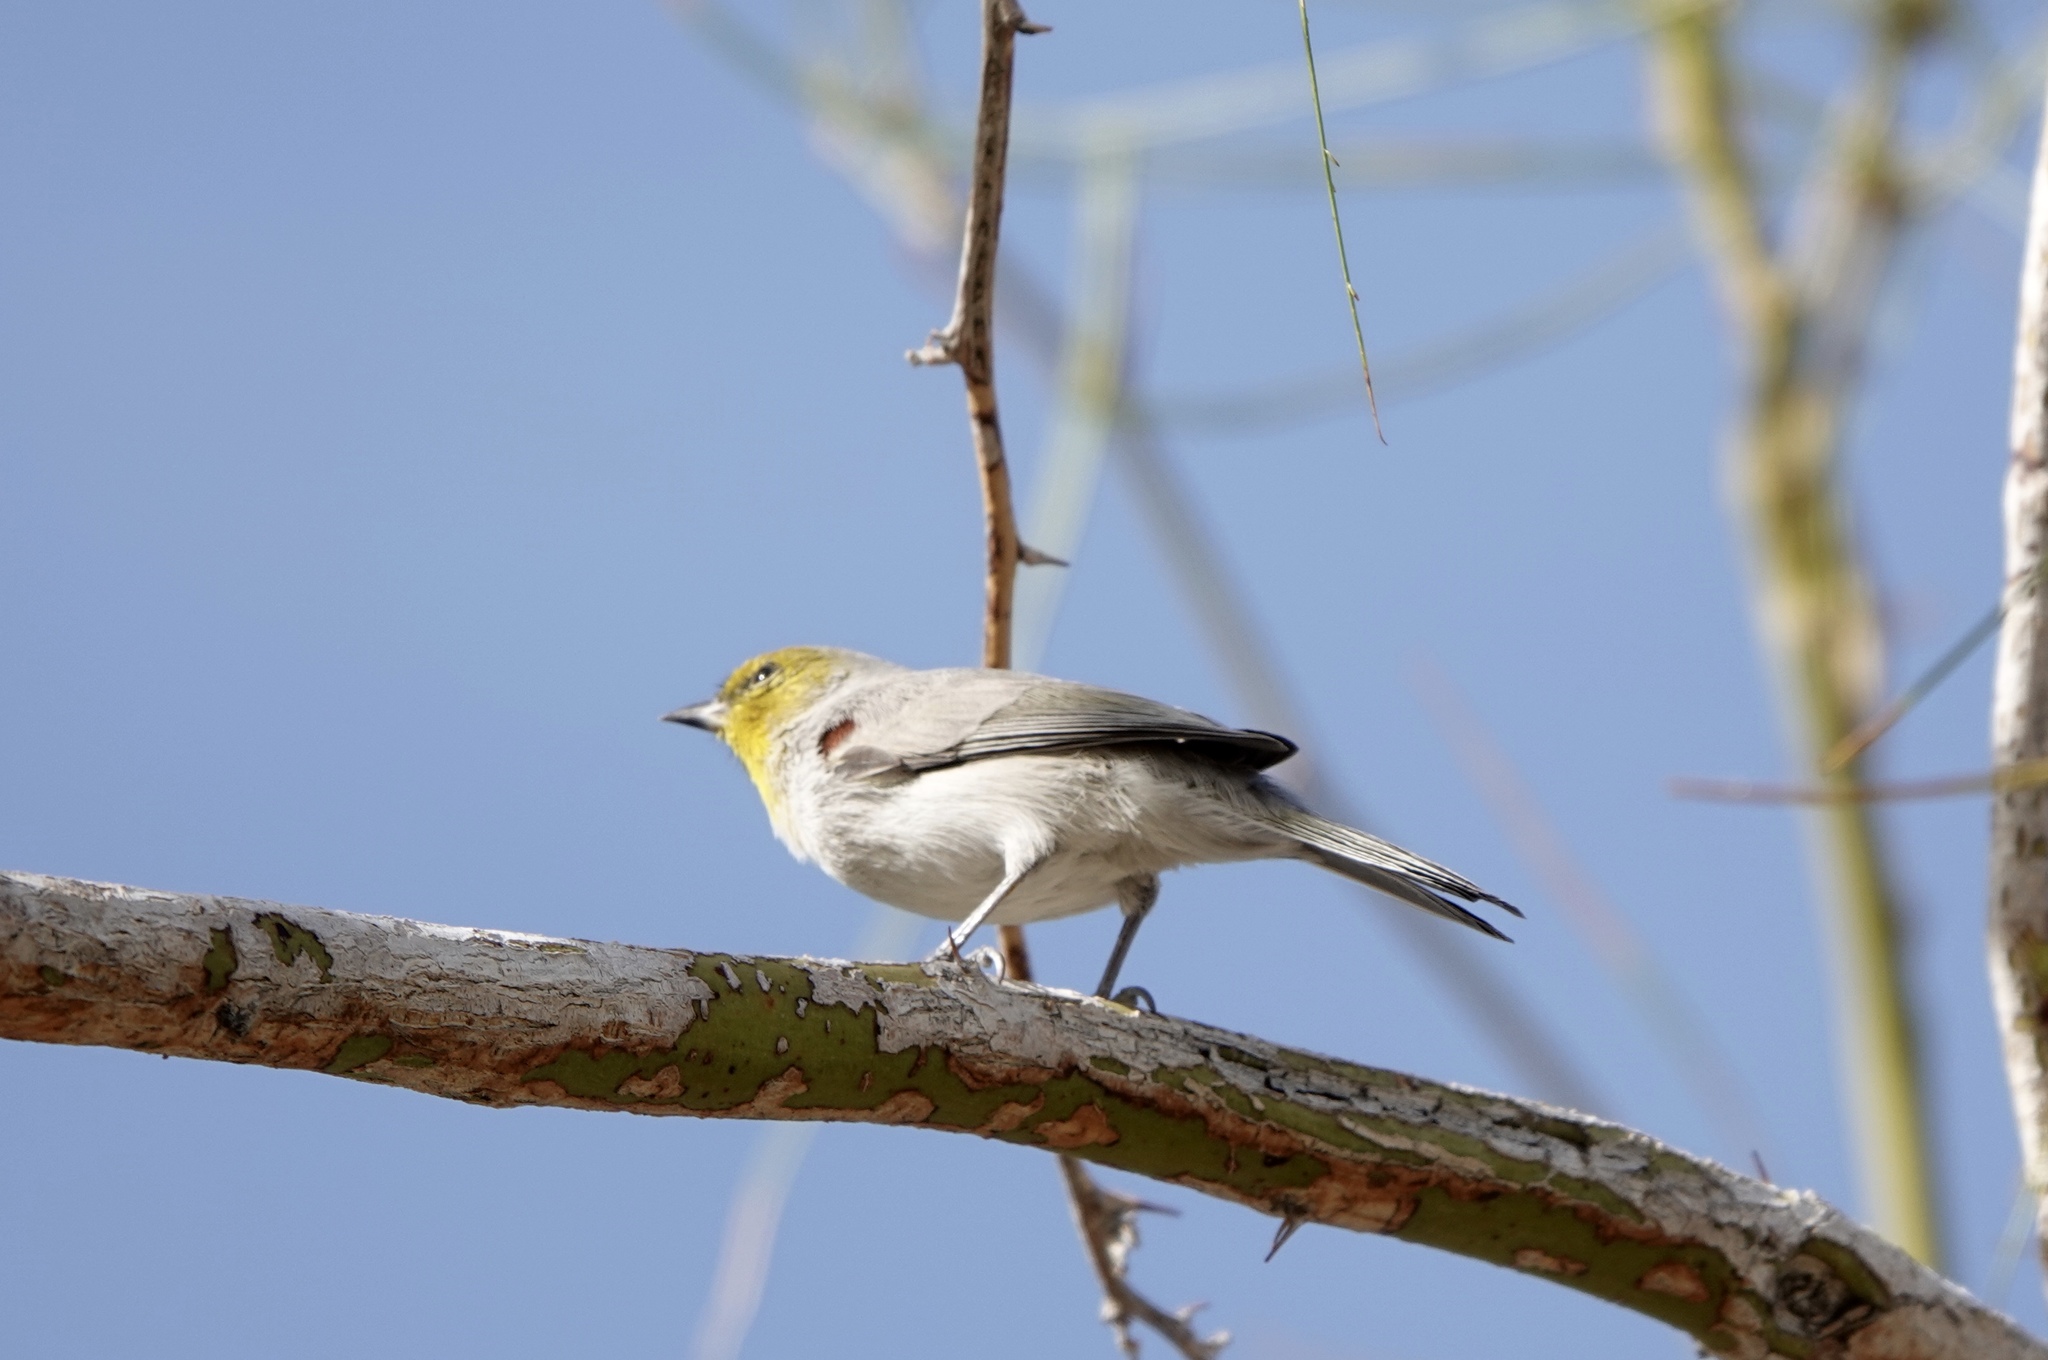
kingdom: Animalia
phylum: Chordata
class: Aves
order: Passeriformes
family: Remizidae
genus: Auriparus
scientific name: Auriparus flaviceps
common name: Verdin
